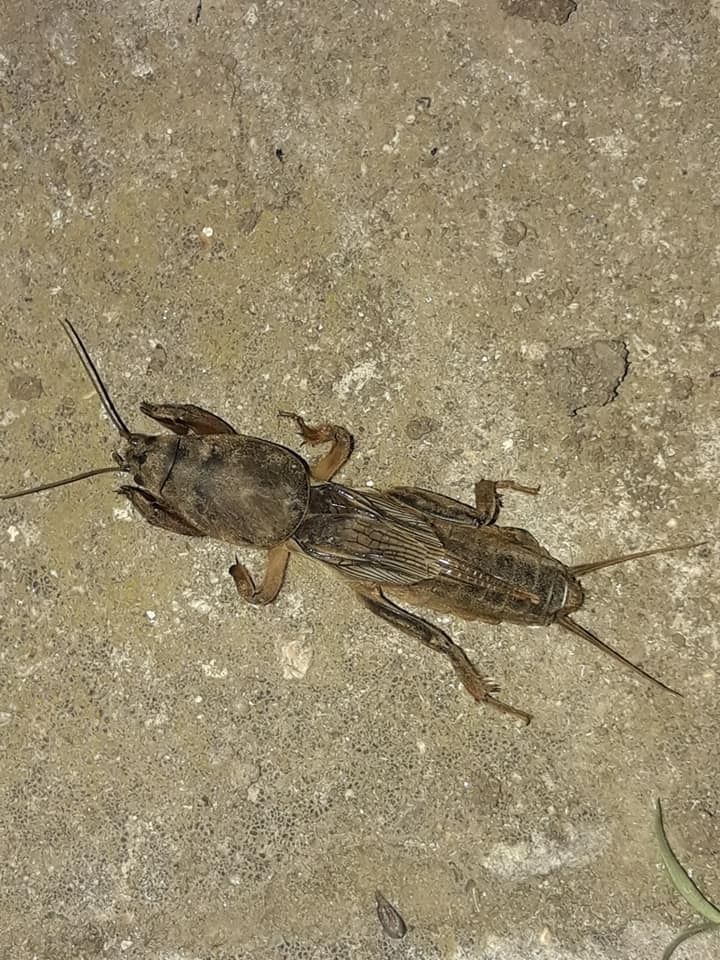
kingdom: Animalia
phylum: Arthropoda
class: Insecta
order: Orthoptera
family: Gryllotalpidae
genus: Gryllotalpa
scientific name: Gryllotalpa stepposa
